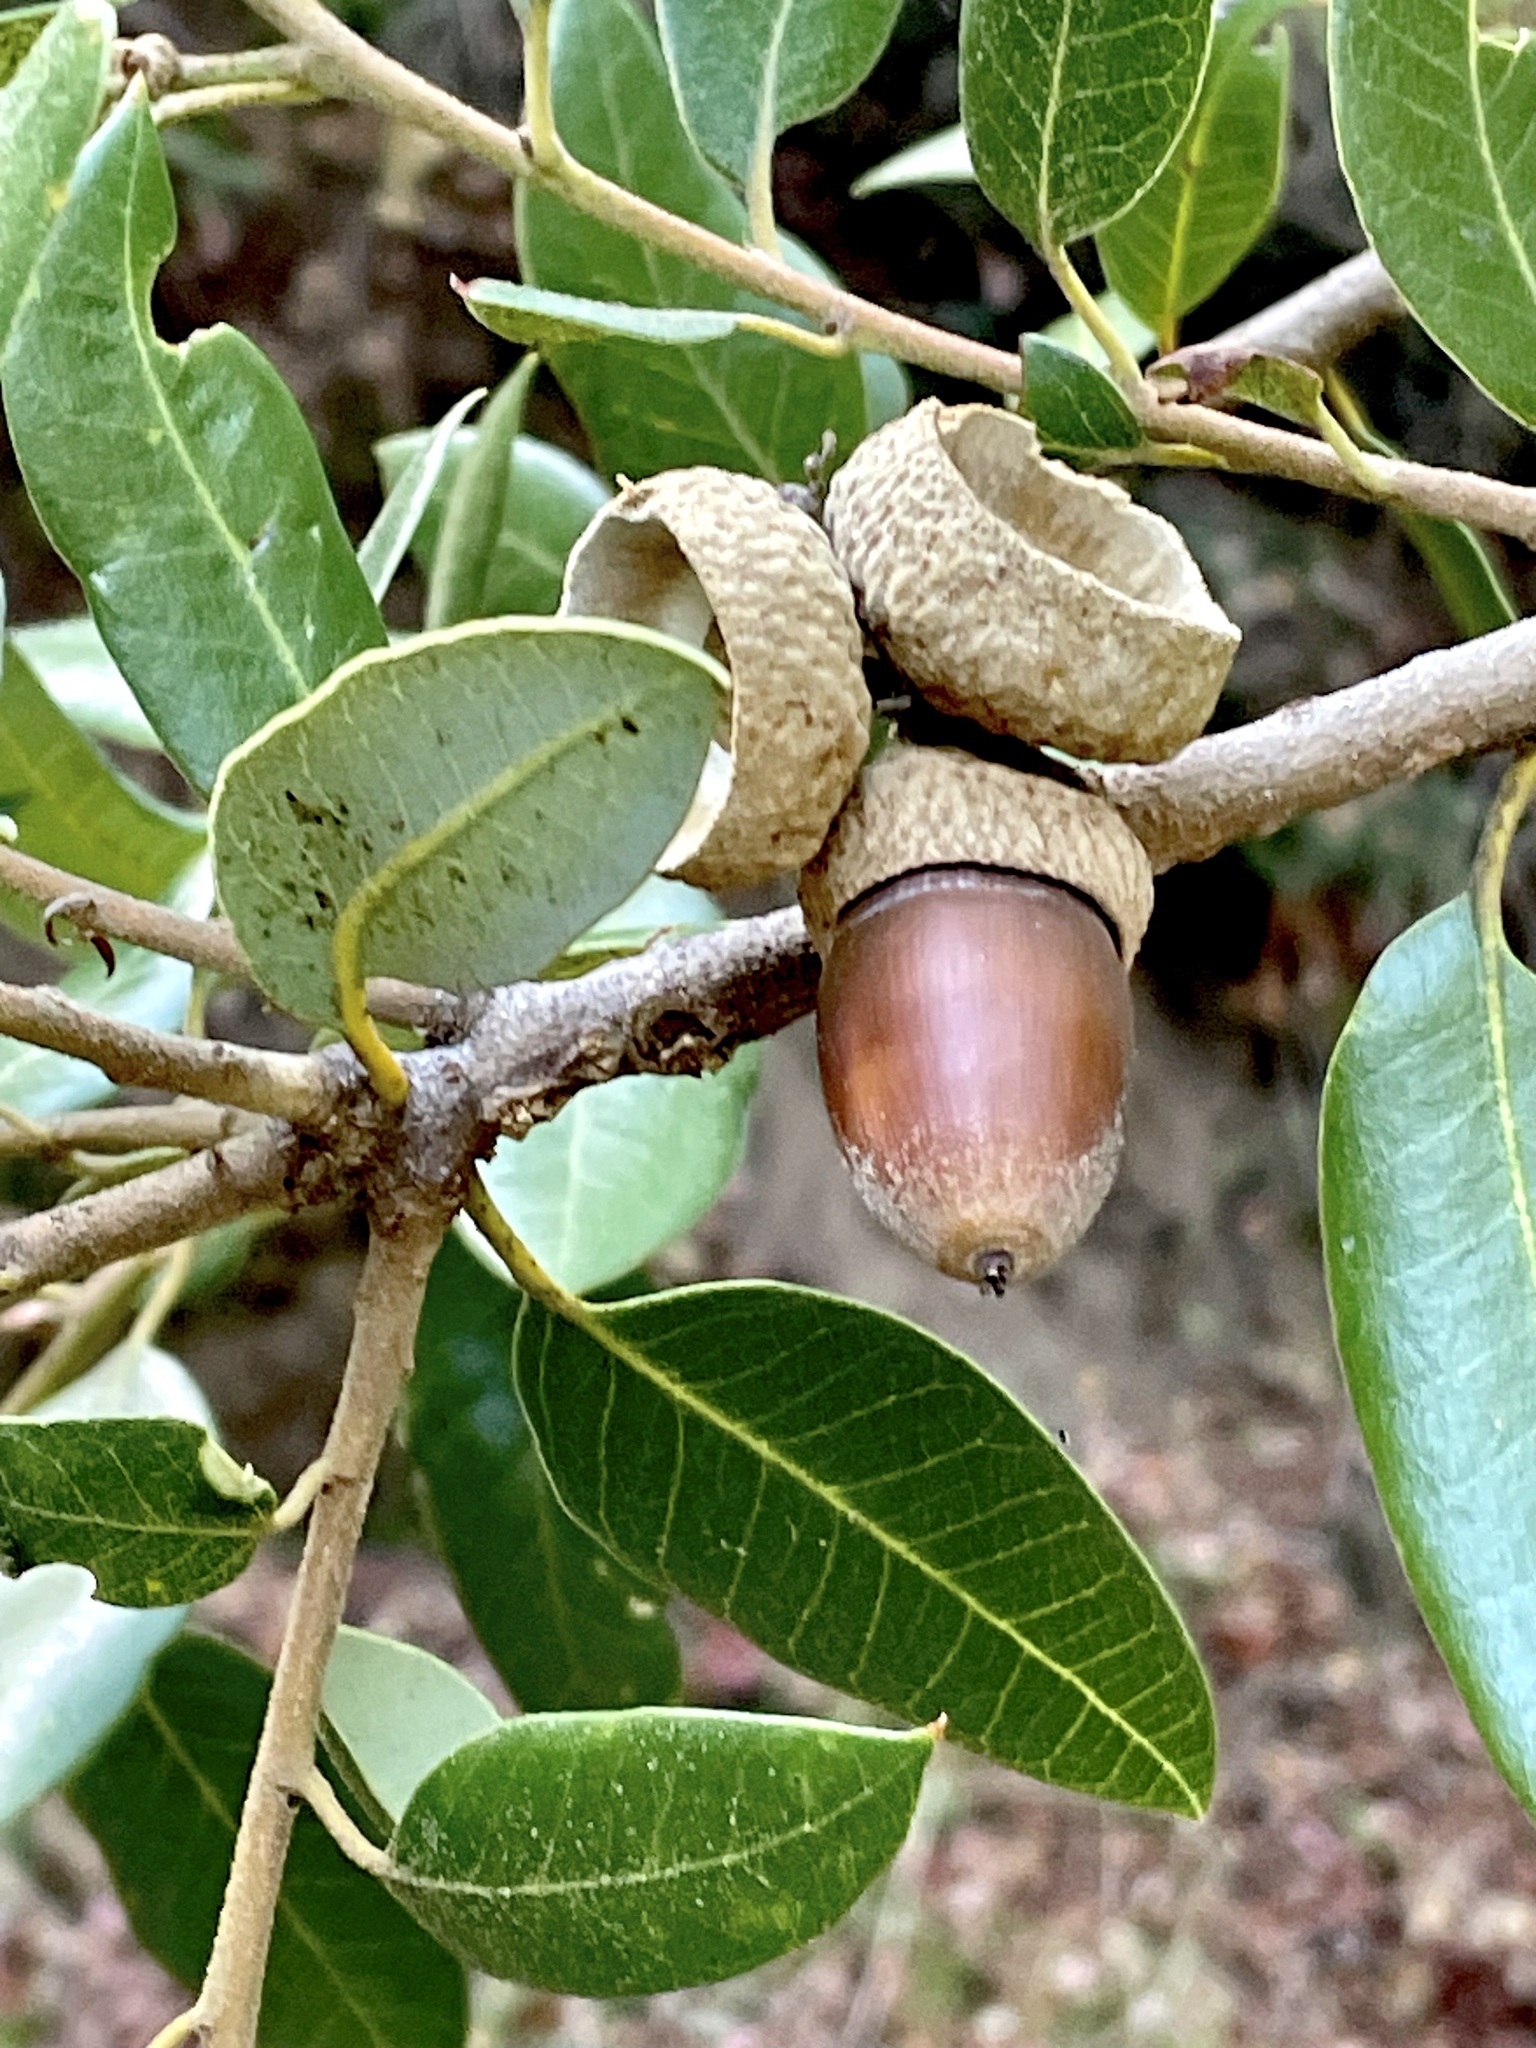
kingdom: Plantae
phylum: Tracheophyta
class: Magnoliopsida
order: Fagales
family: Fagaceae
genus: Quercus
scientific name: Quercus chrysolepis
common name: Canyon live oak
